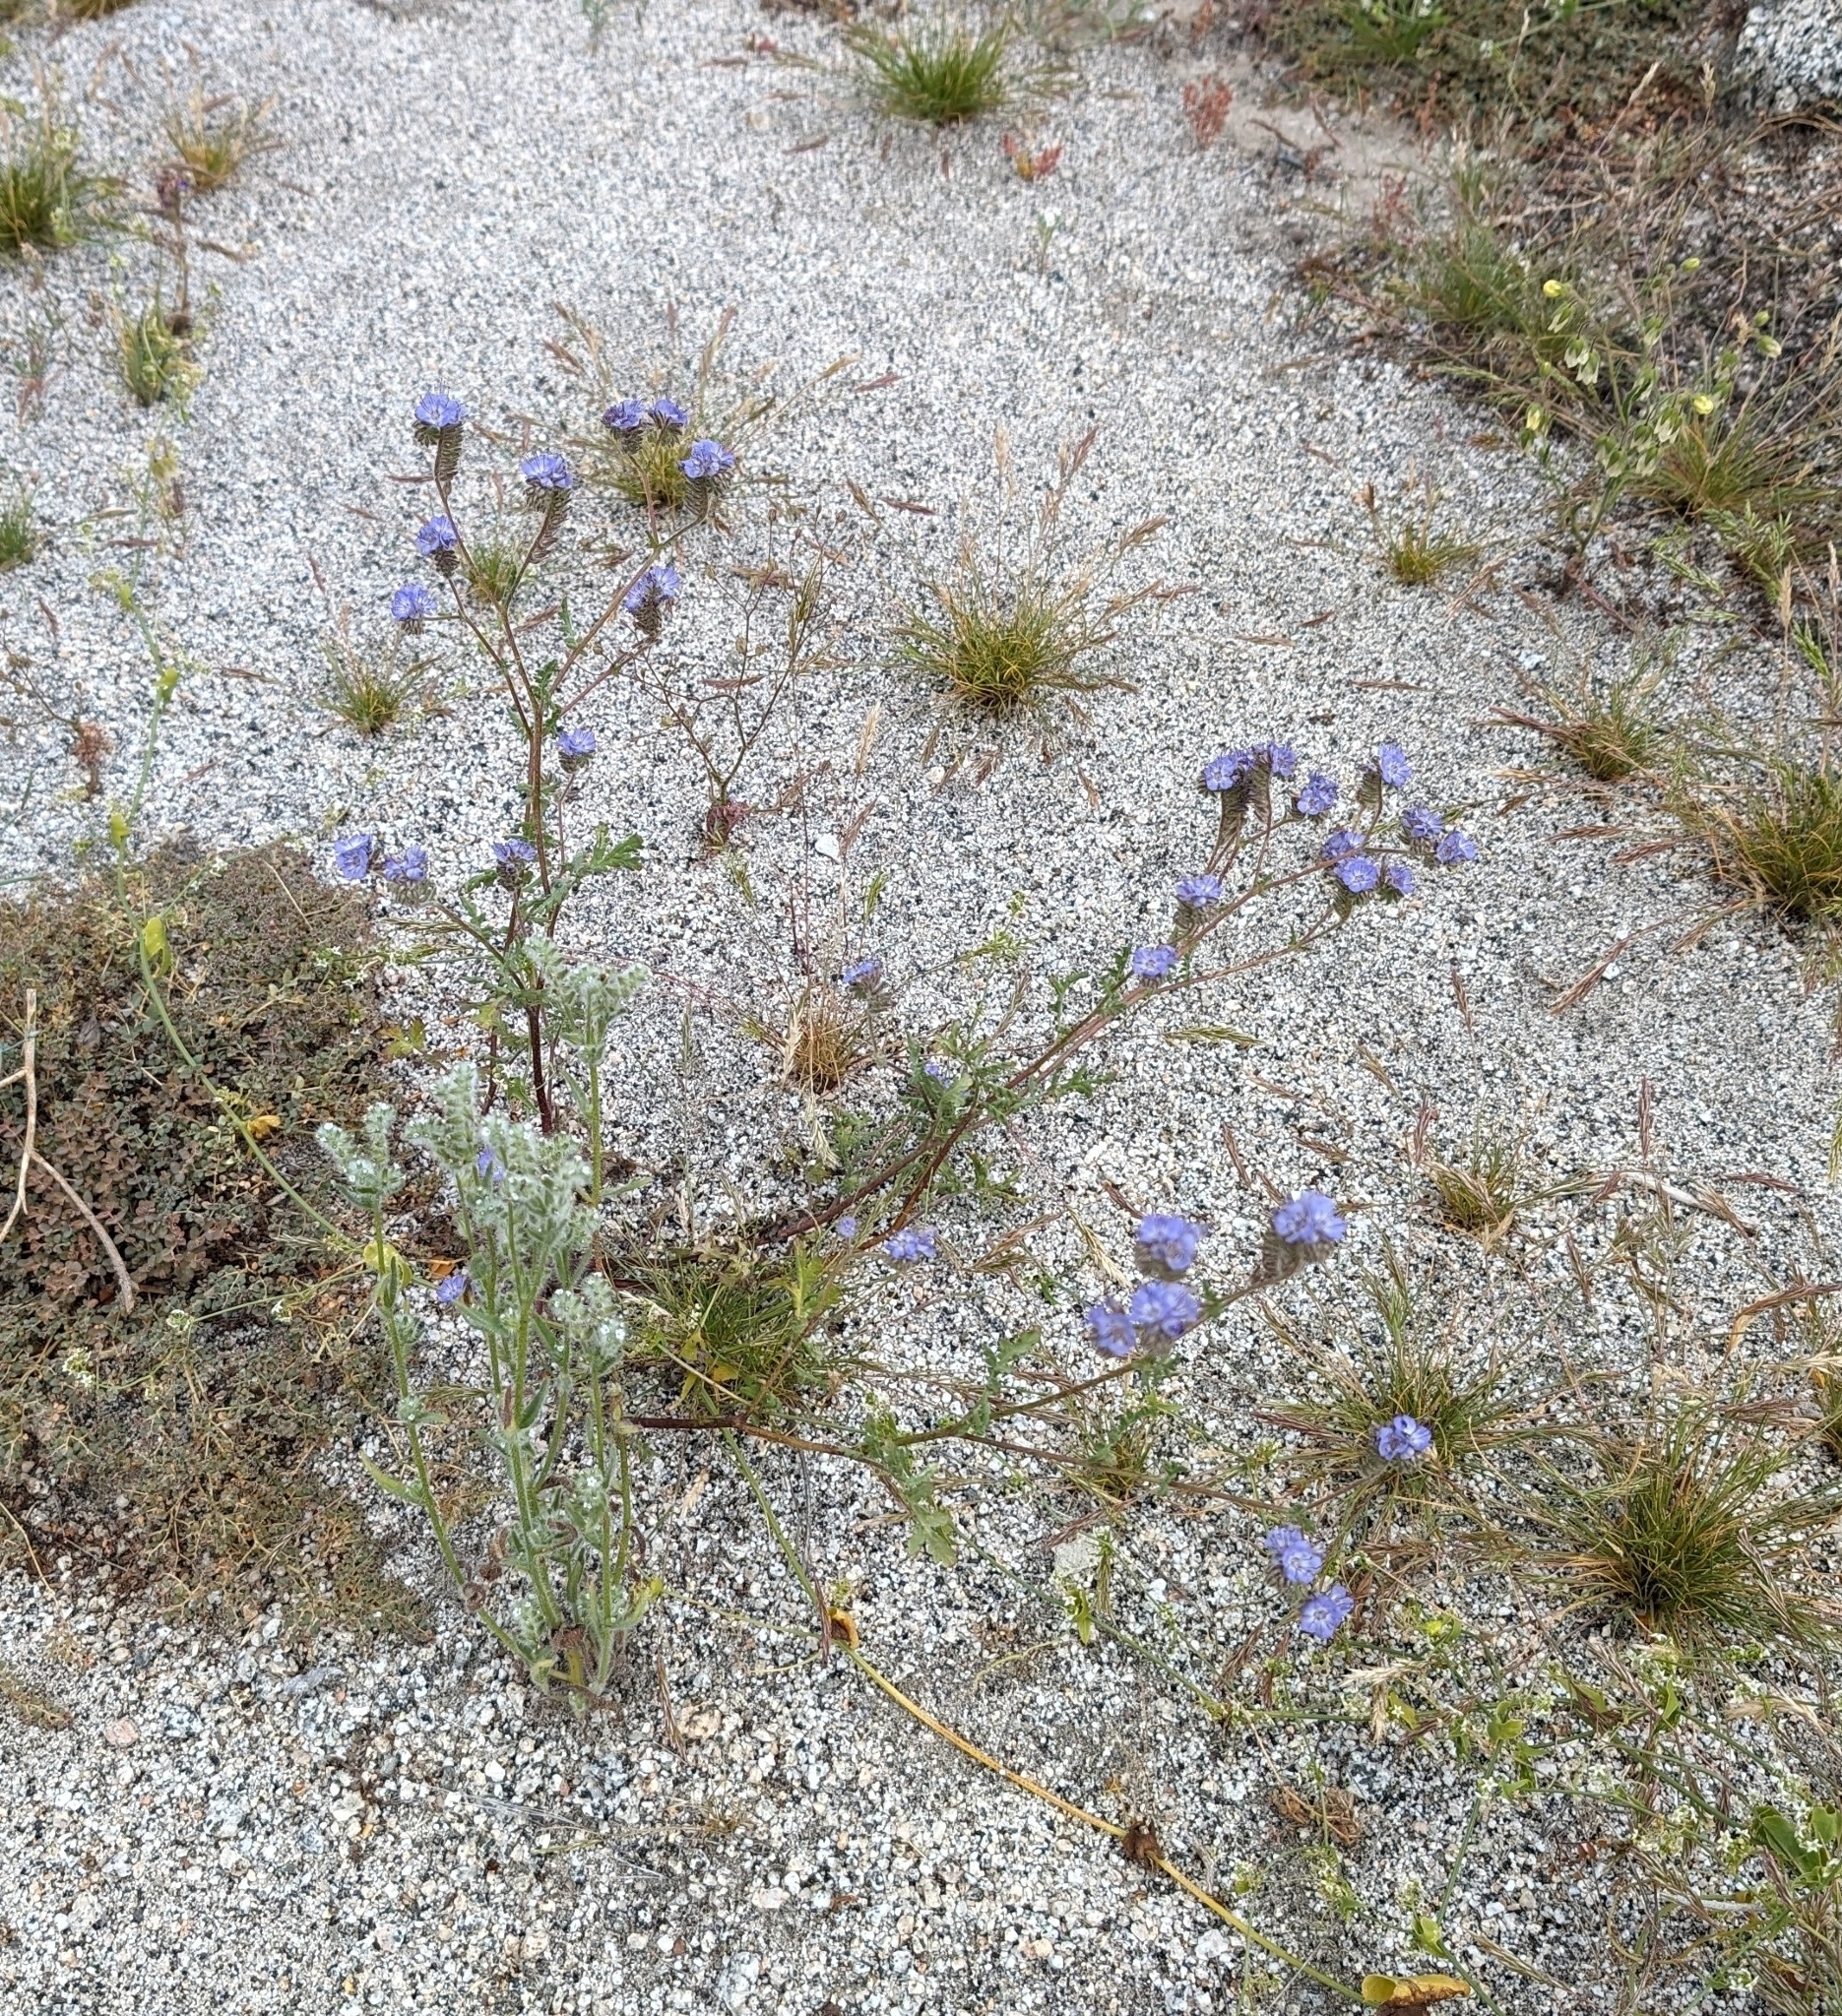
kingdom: Plantae
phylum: Tracheophyta
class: Magnoliopsida
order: Boraginales
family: Hydrophyllaceae
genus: Phacelia
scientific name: Phacelia distans
